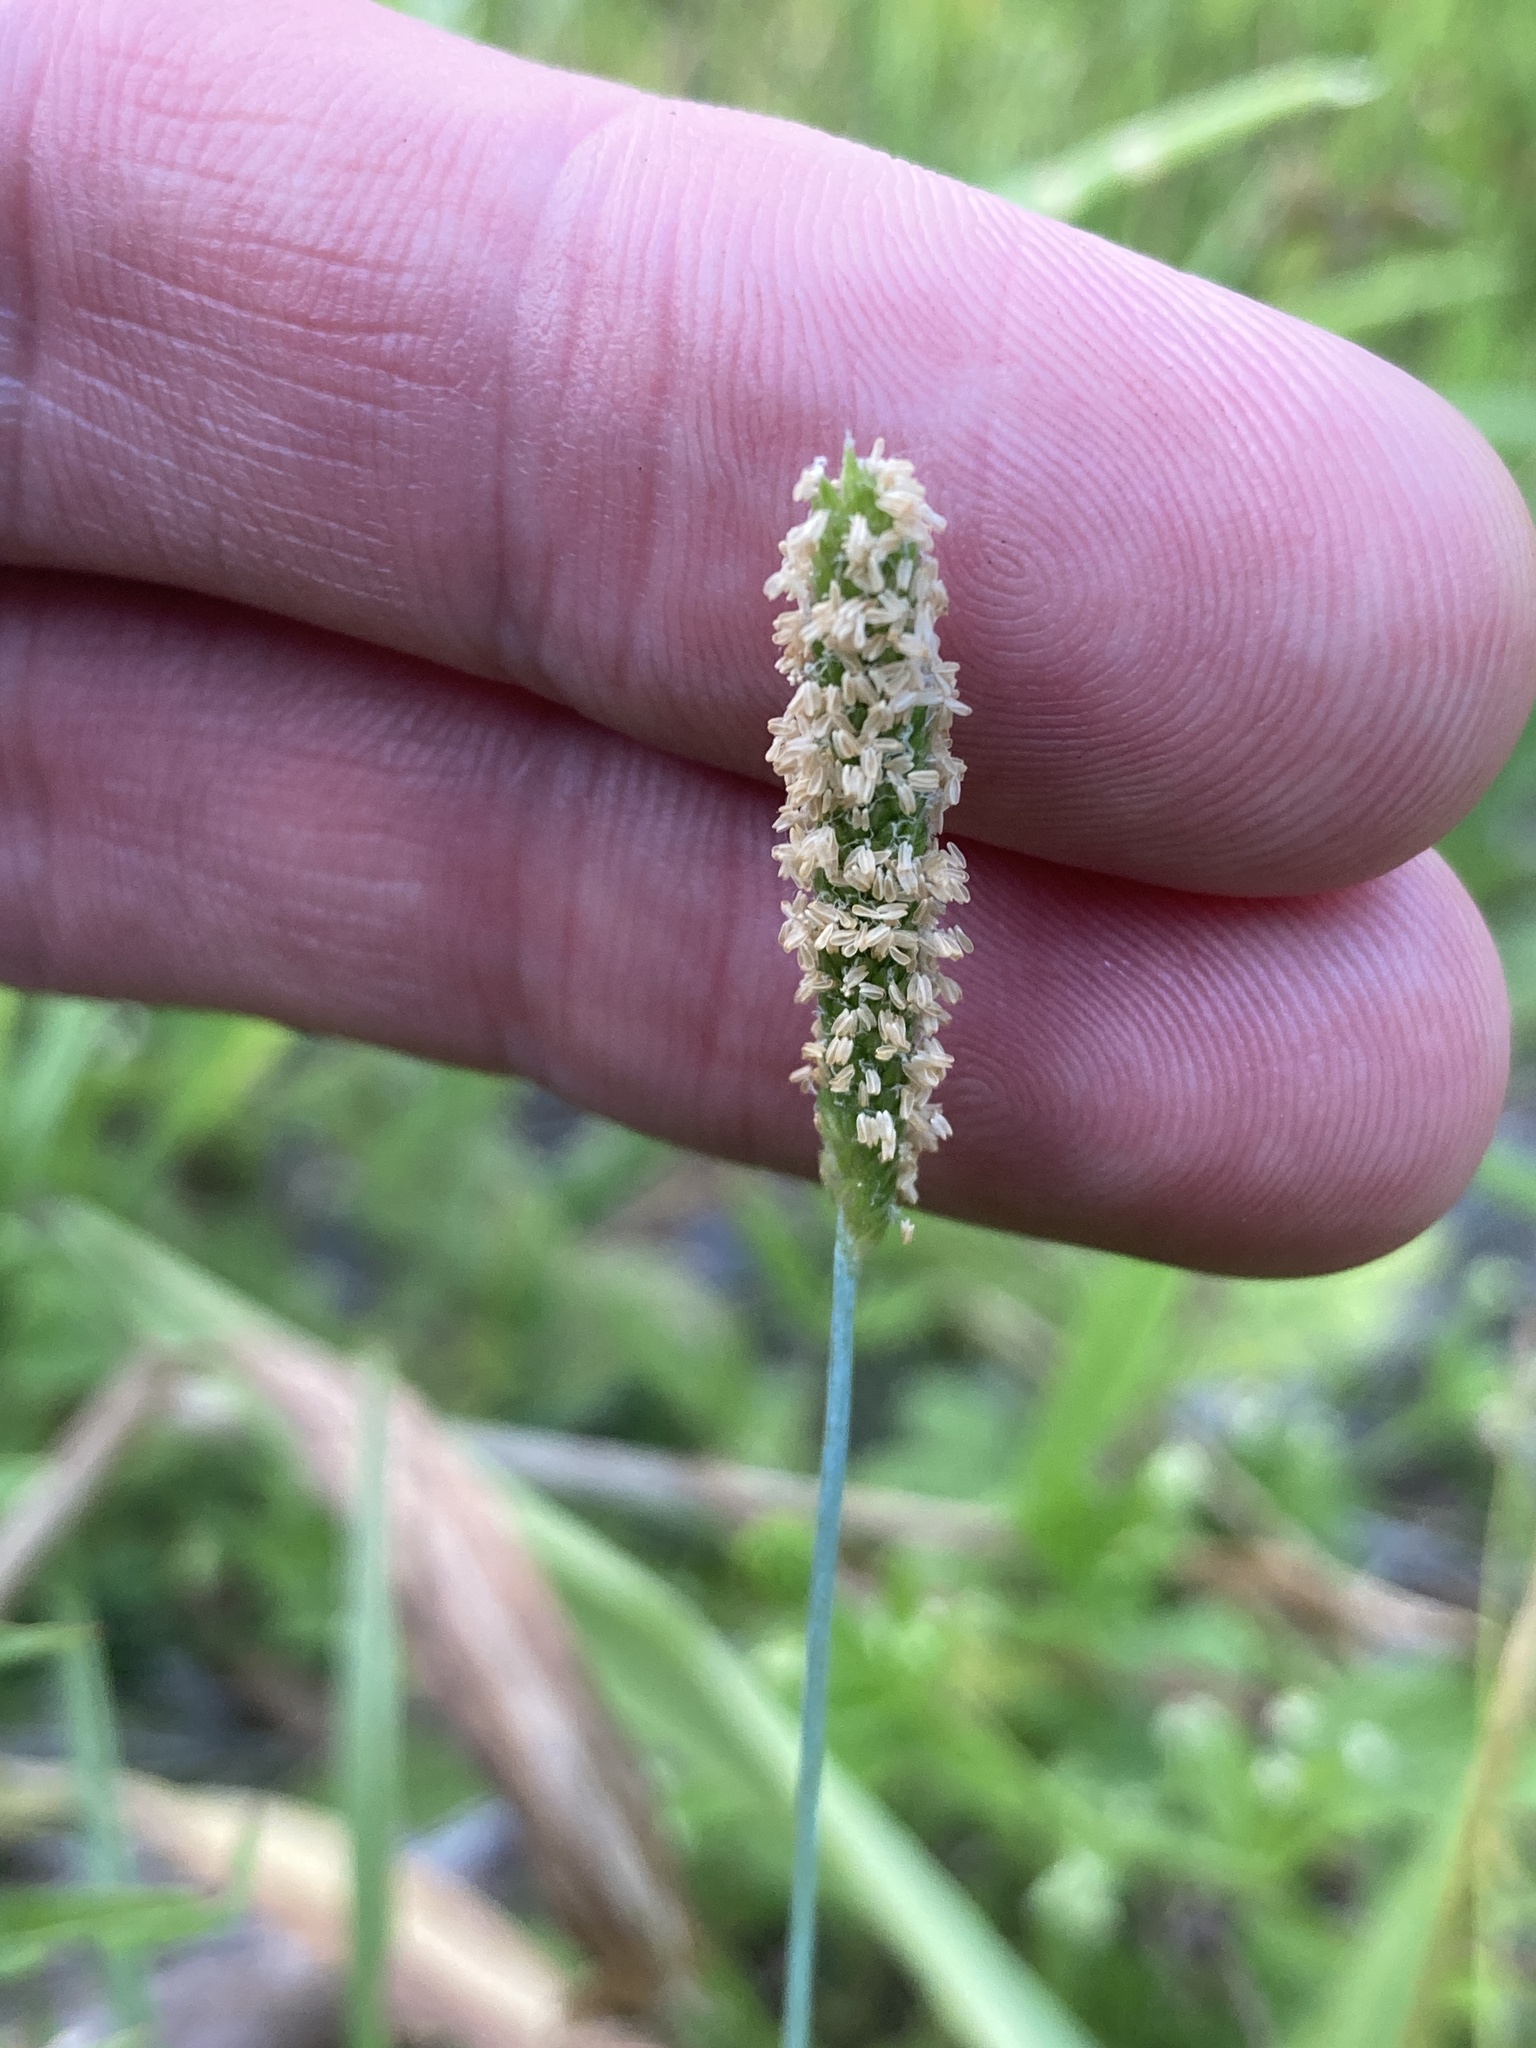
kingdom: Plantae
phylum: Tracheophyta
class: Liliopsida
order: Poales
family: Poaceae
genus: Alopecurus
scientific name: Alopecurus aequalis
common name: Orange foxtail
